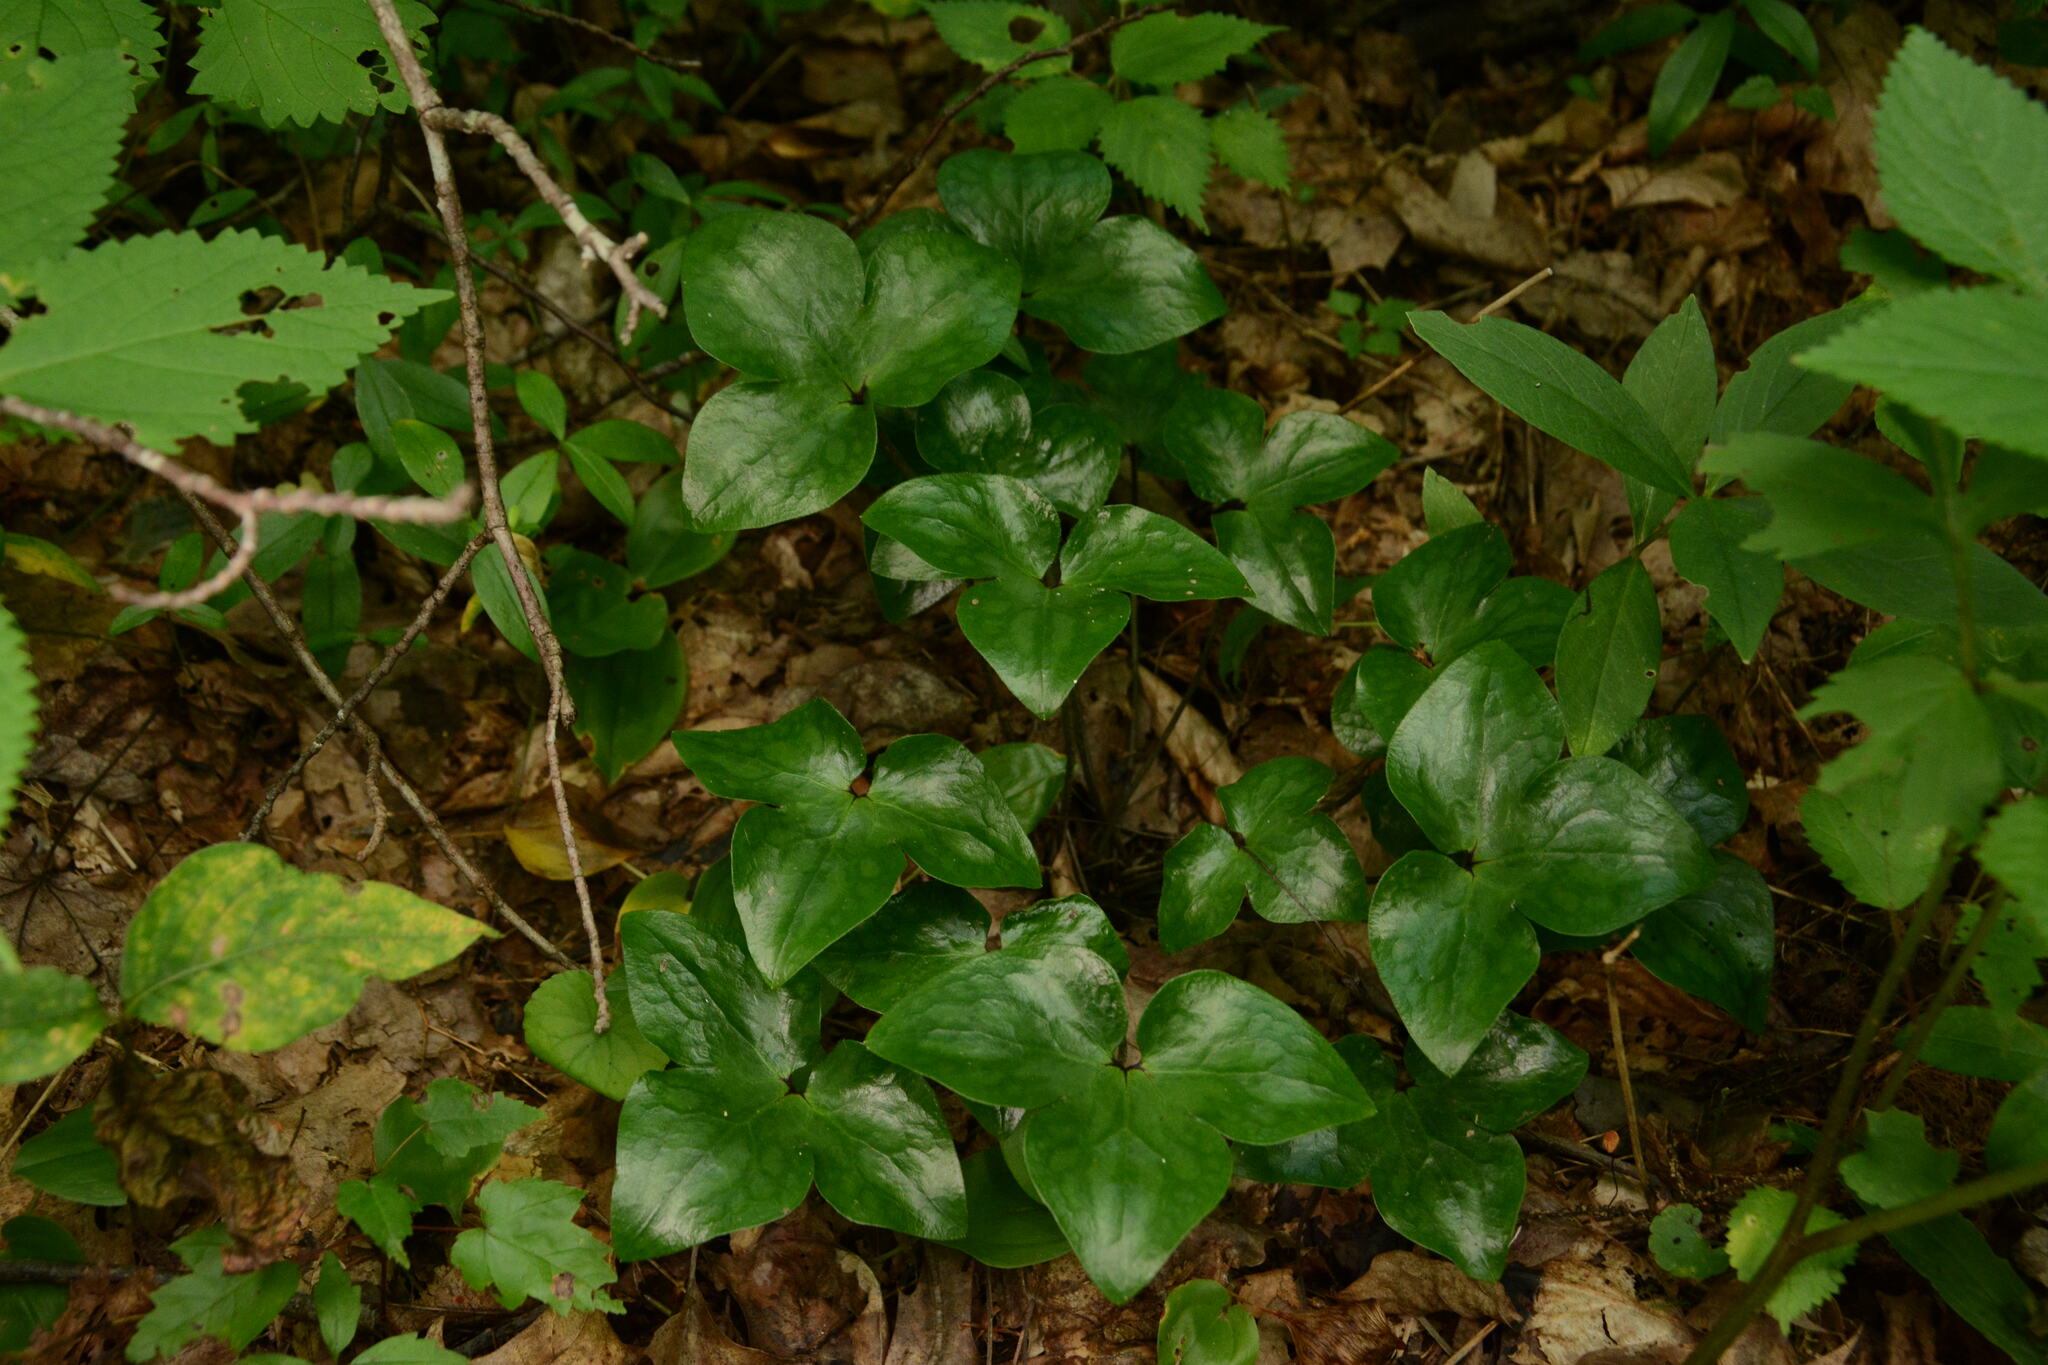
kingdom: Plantae
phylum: Tracheophyta
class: Magnoliopsida
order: Ranunculales
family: Ranunculaceae
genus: Hepatica
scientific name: Hepatica acutiloba
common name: Sharp-lobed hepatica
